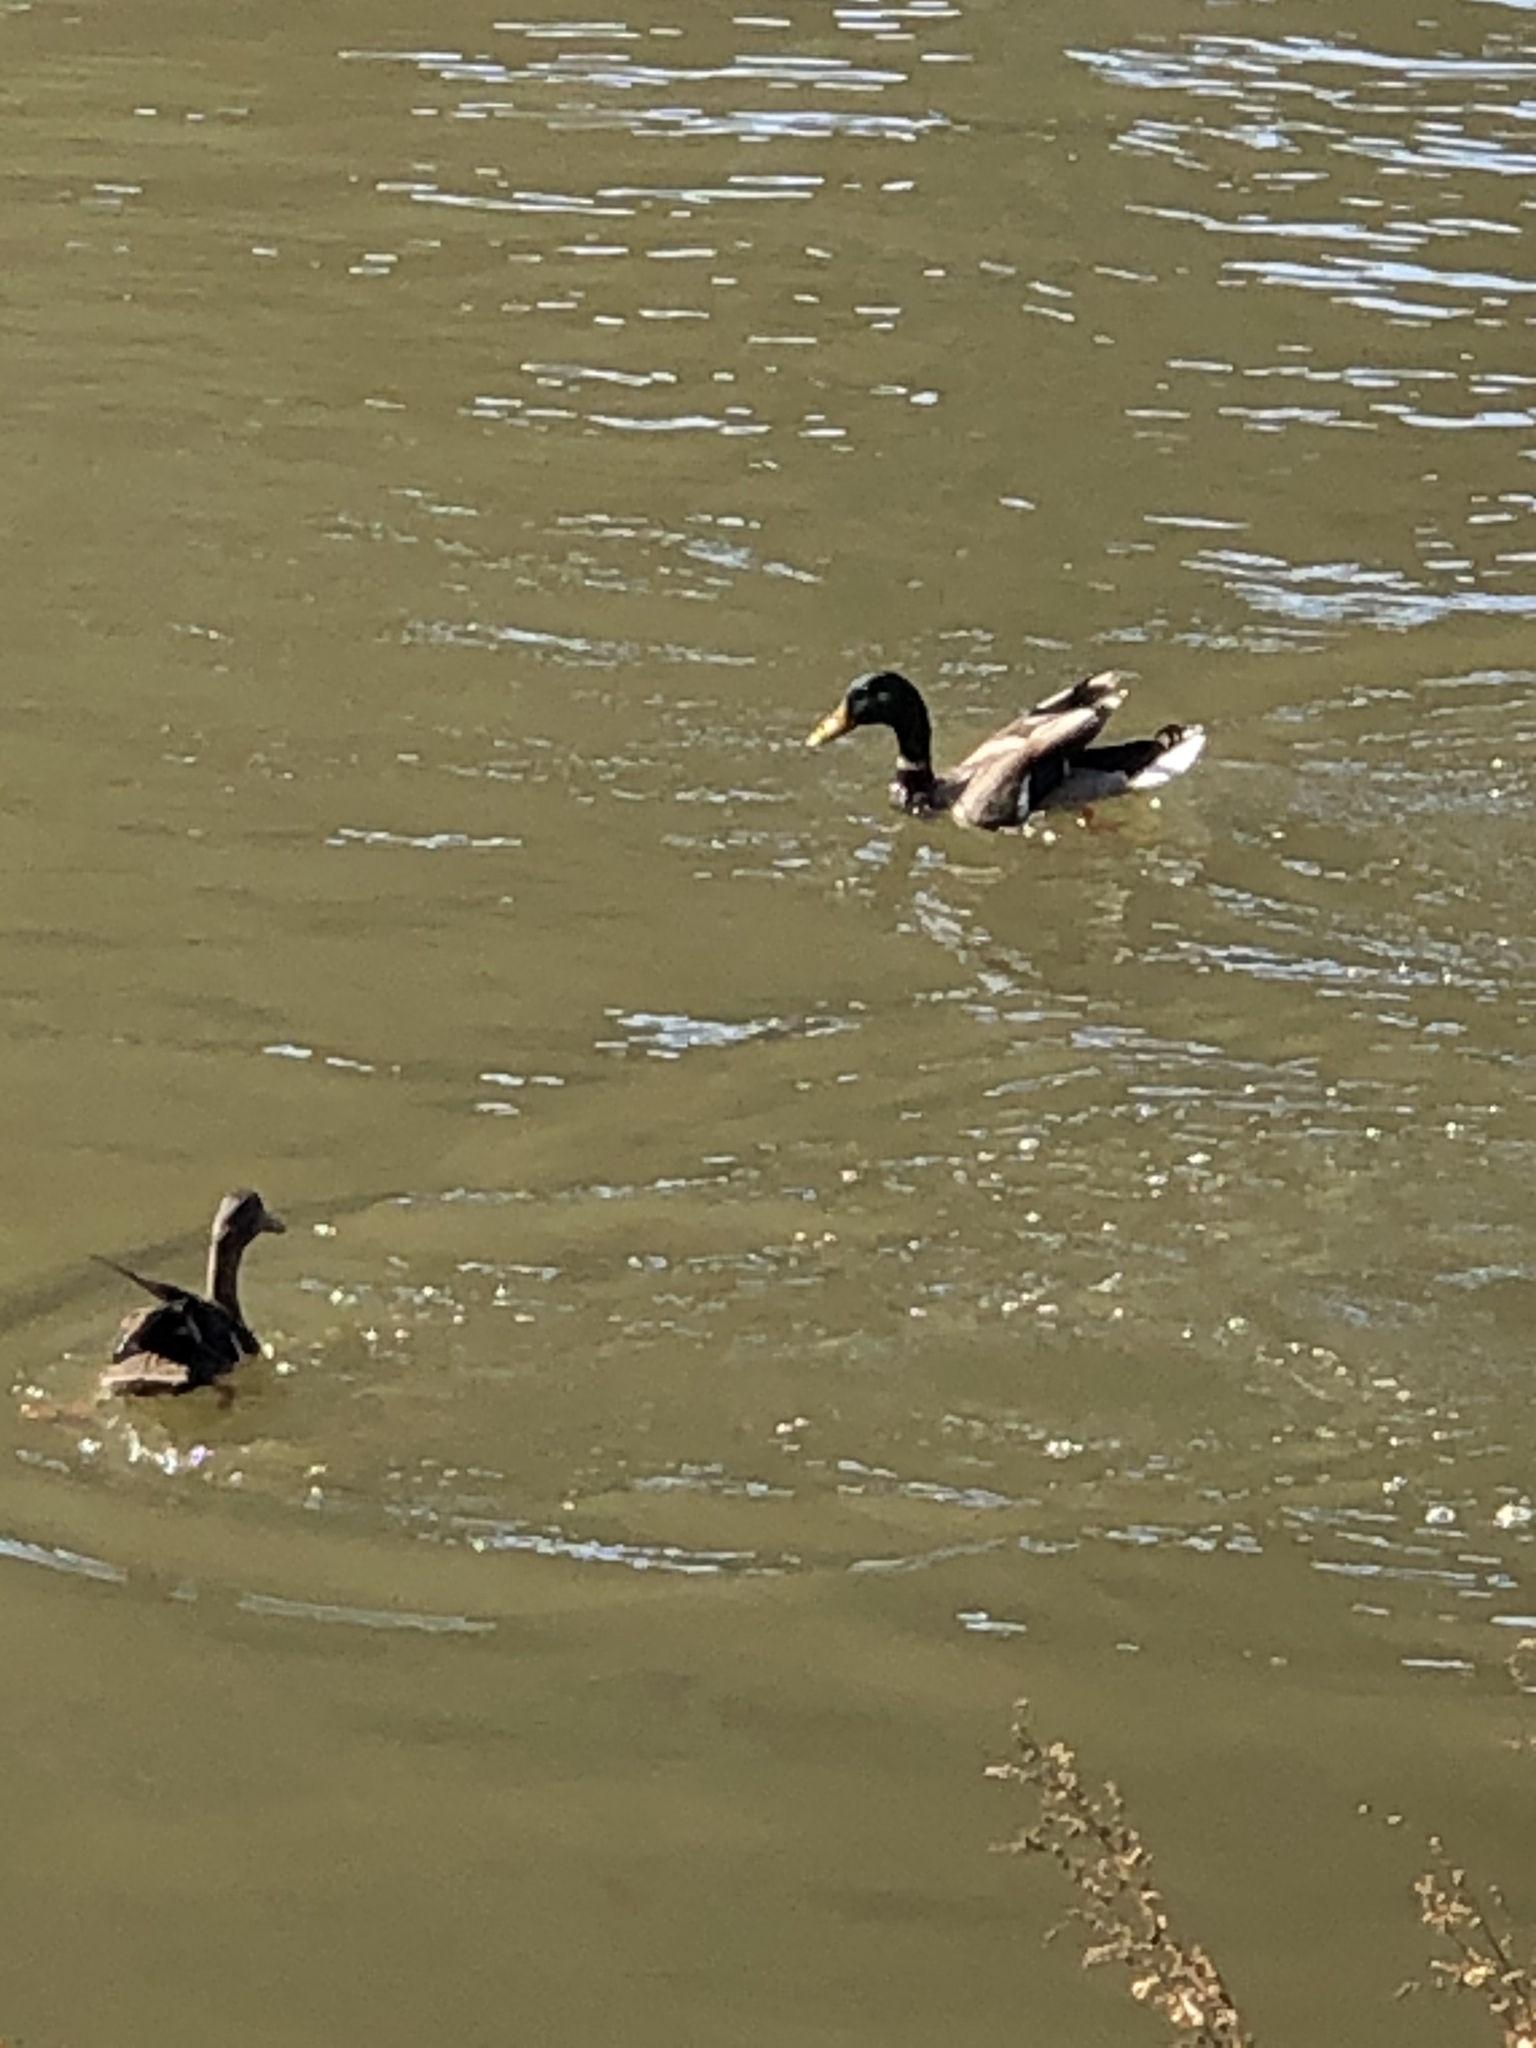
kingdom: Animalia
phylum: Chordata
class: Aves
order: Anseriformes
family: Anatidae
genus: Anas
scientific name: Anas platyrhynchos
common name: Mallard
